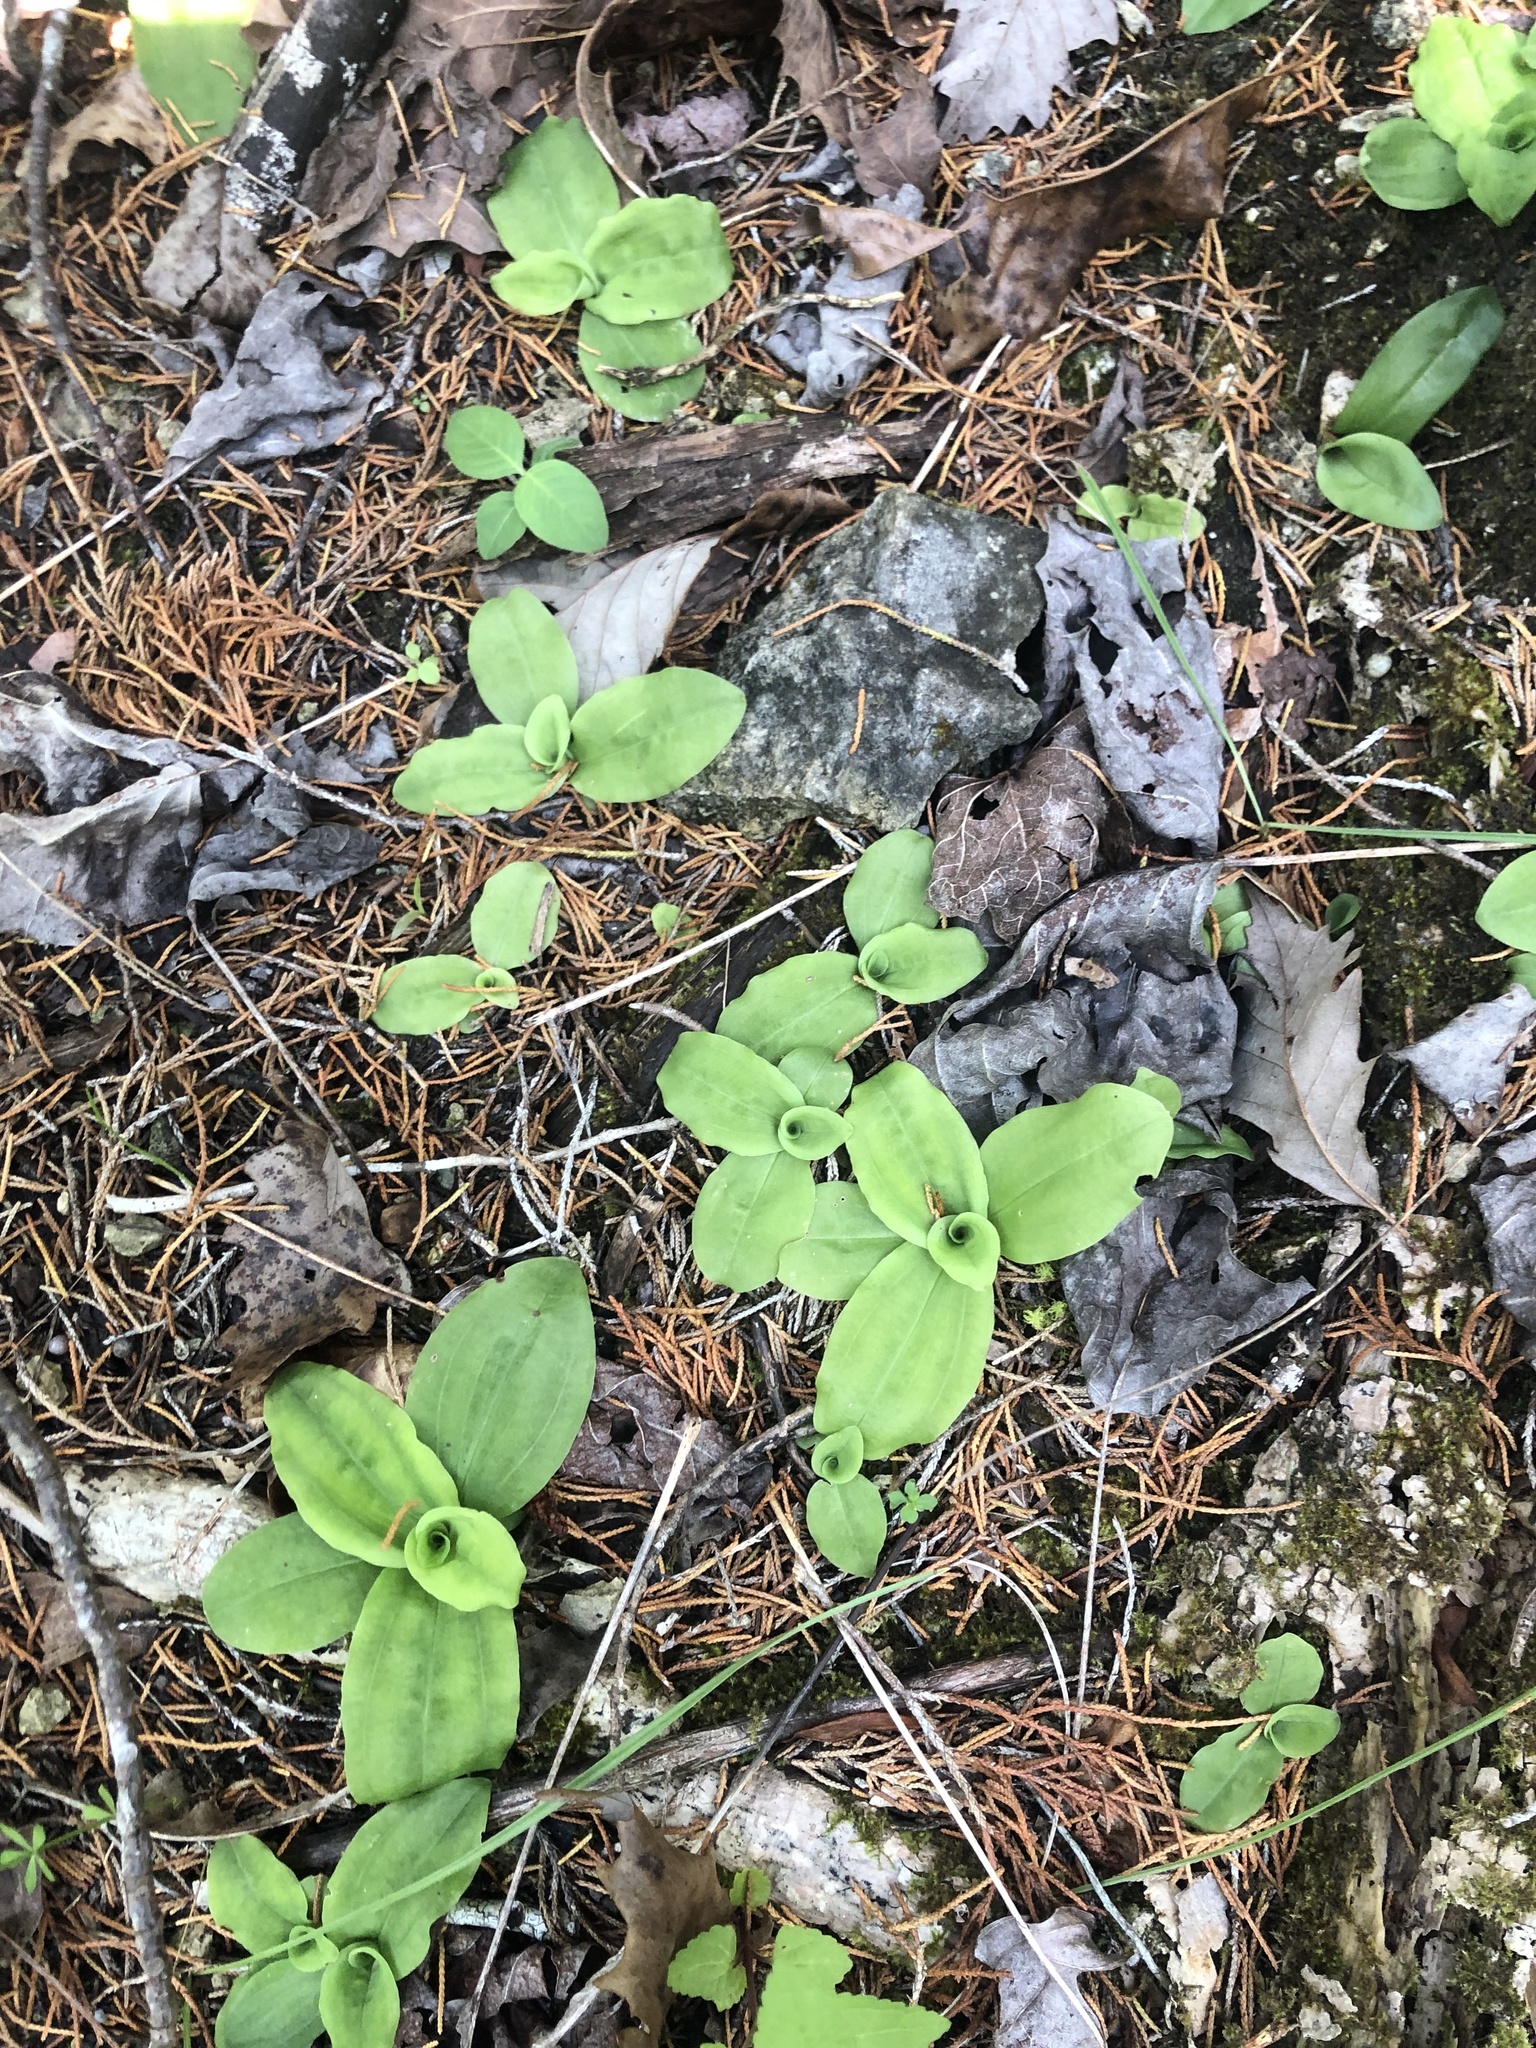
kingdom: Plantae
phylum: Tracheophyta
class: Liliopsida
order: Asparagales
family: Orchidaceae
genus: Ponthieva
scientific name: Ponthieva racemosa
